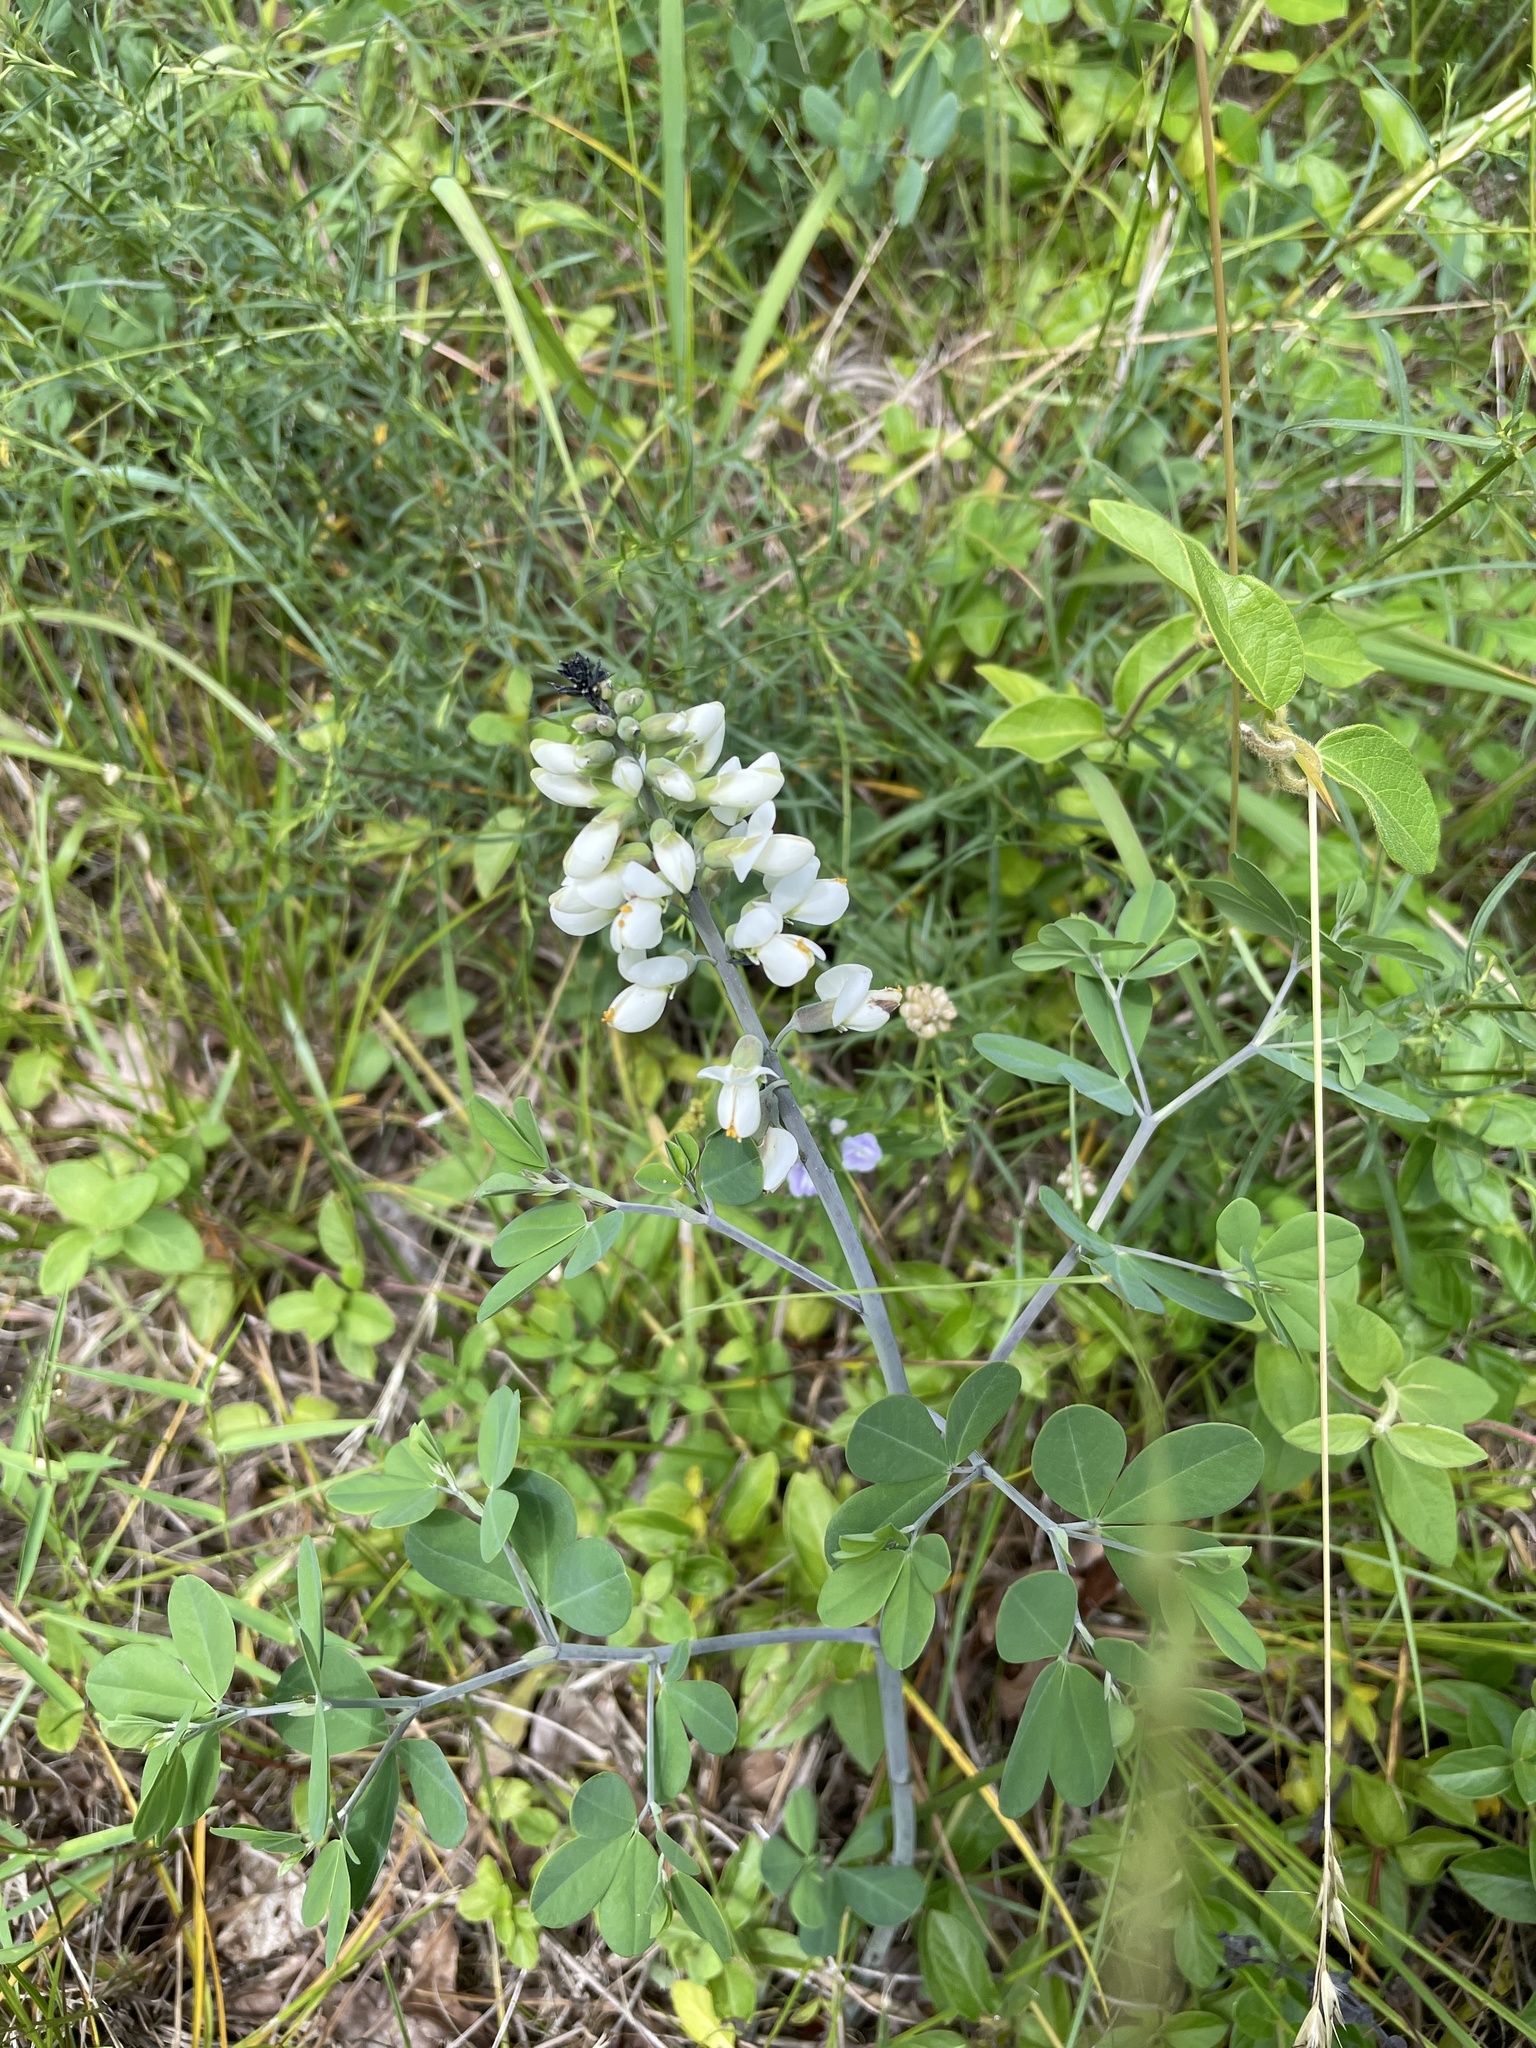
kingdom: Plantae
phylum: Tracheophyta
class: Magnoliopsida
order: Fabales
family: Fabaceae
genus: Baptisia
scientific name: Baptisia alba
